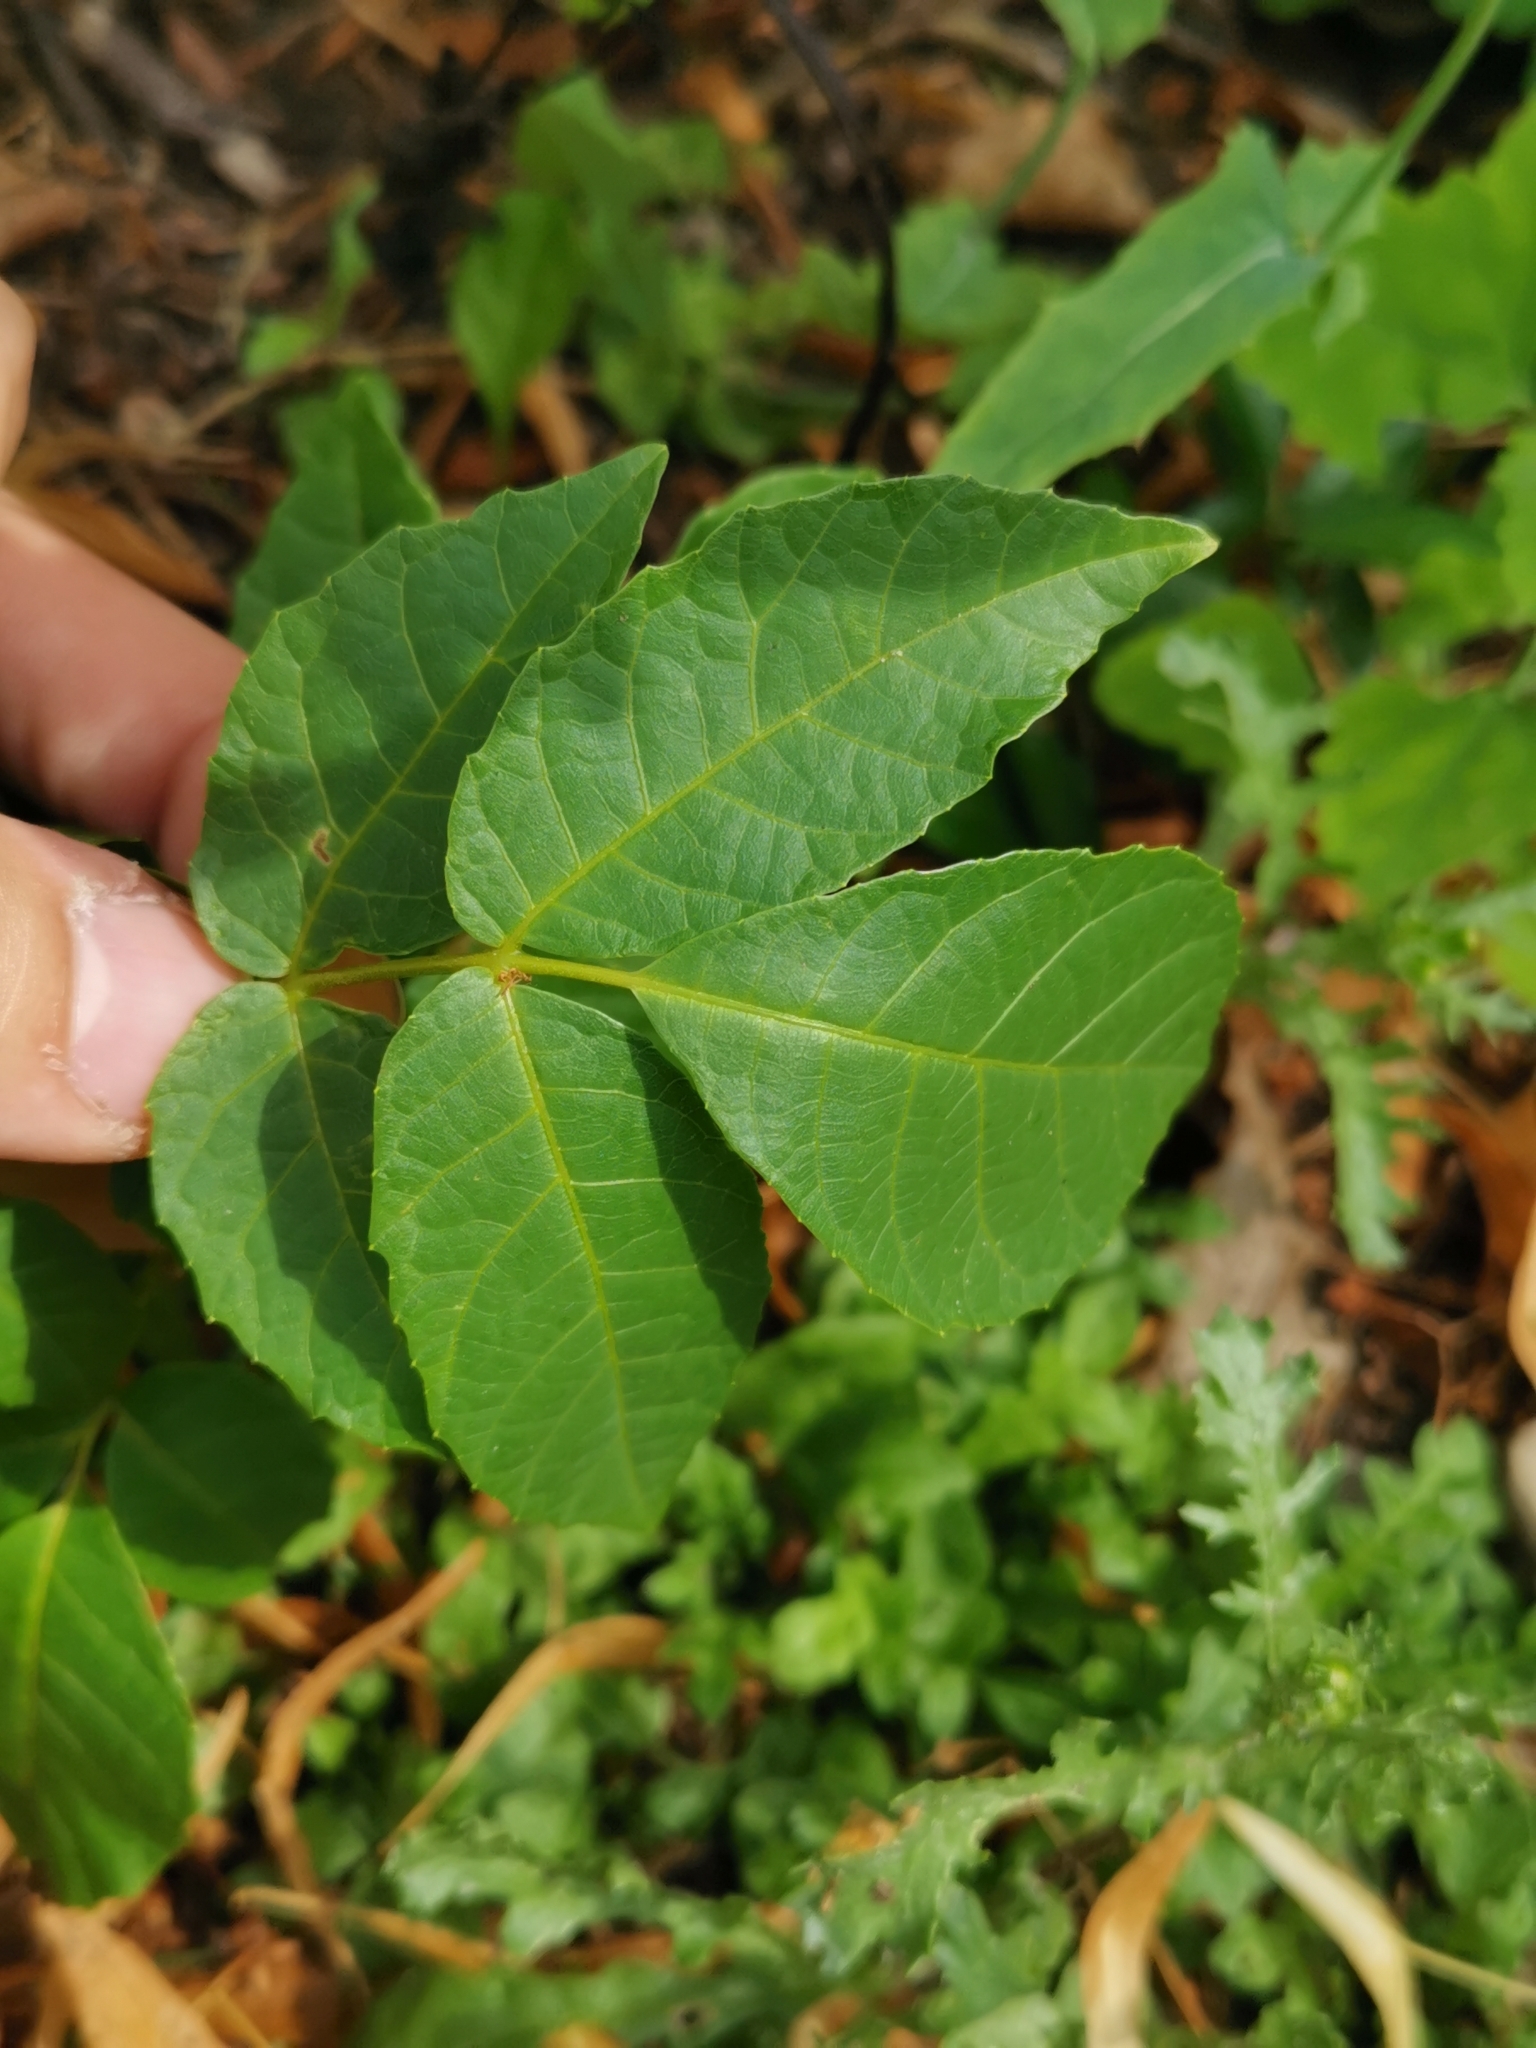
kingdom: Plantae
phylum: Tracheophyta
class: Magnoliopsida
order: Fagales
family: Juglandaceae
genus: Juglans
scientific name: Juglans regia
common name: Walnut
